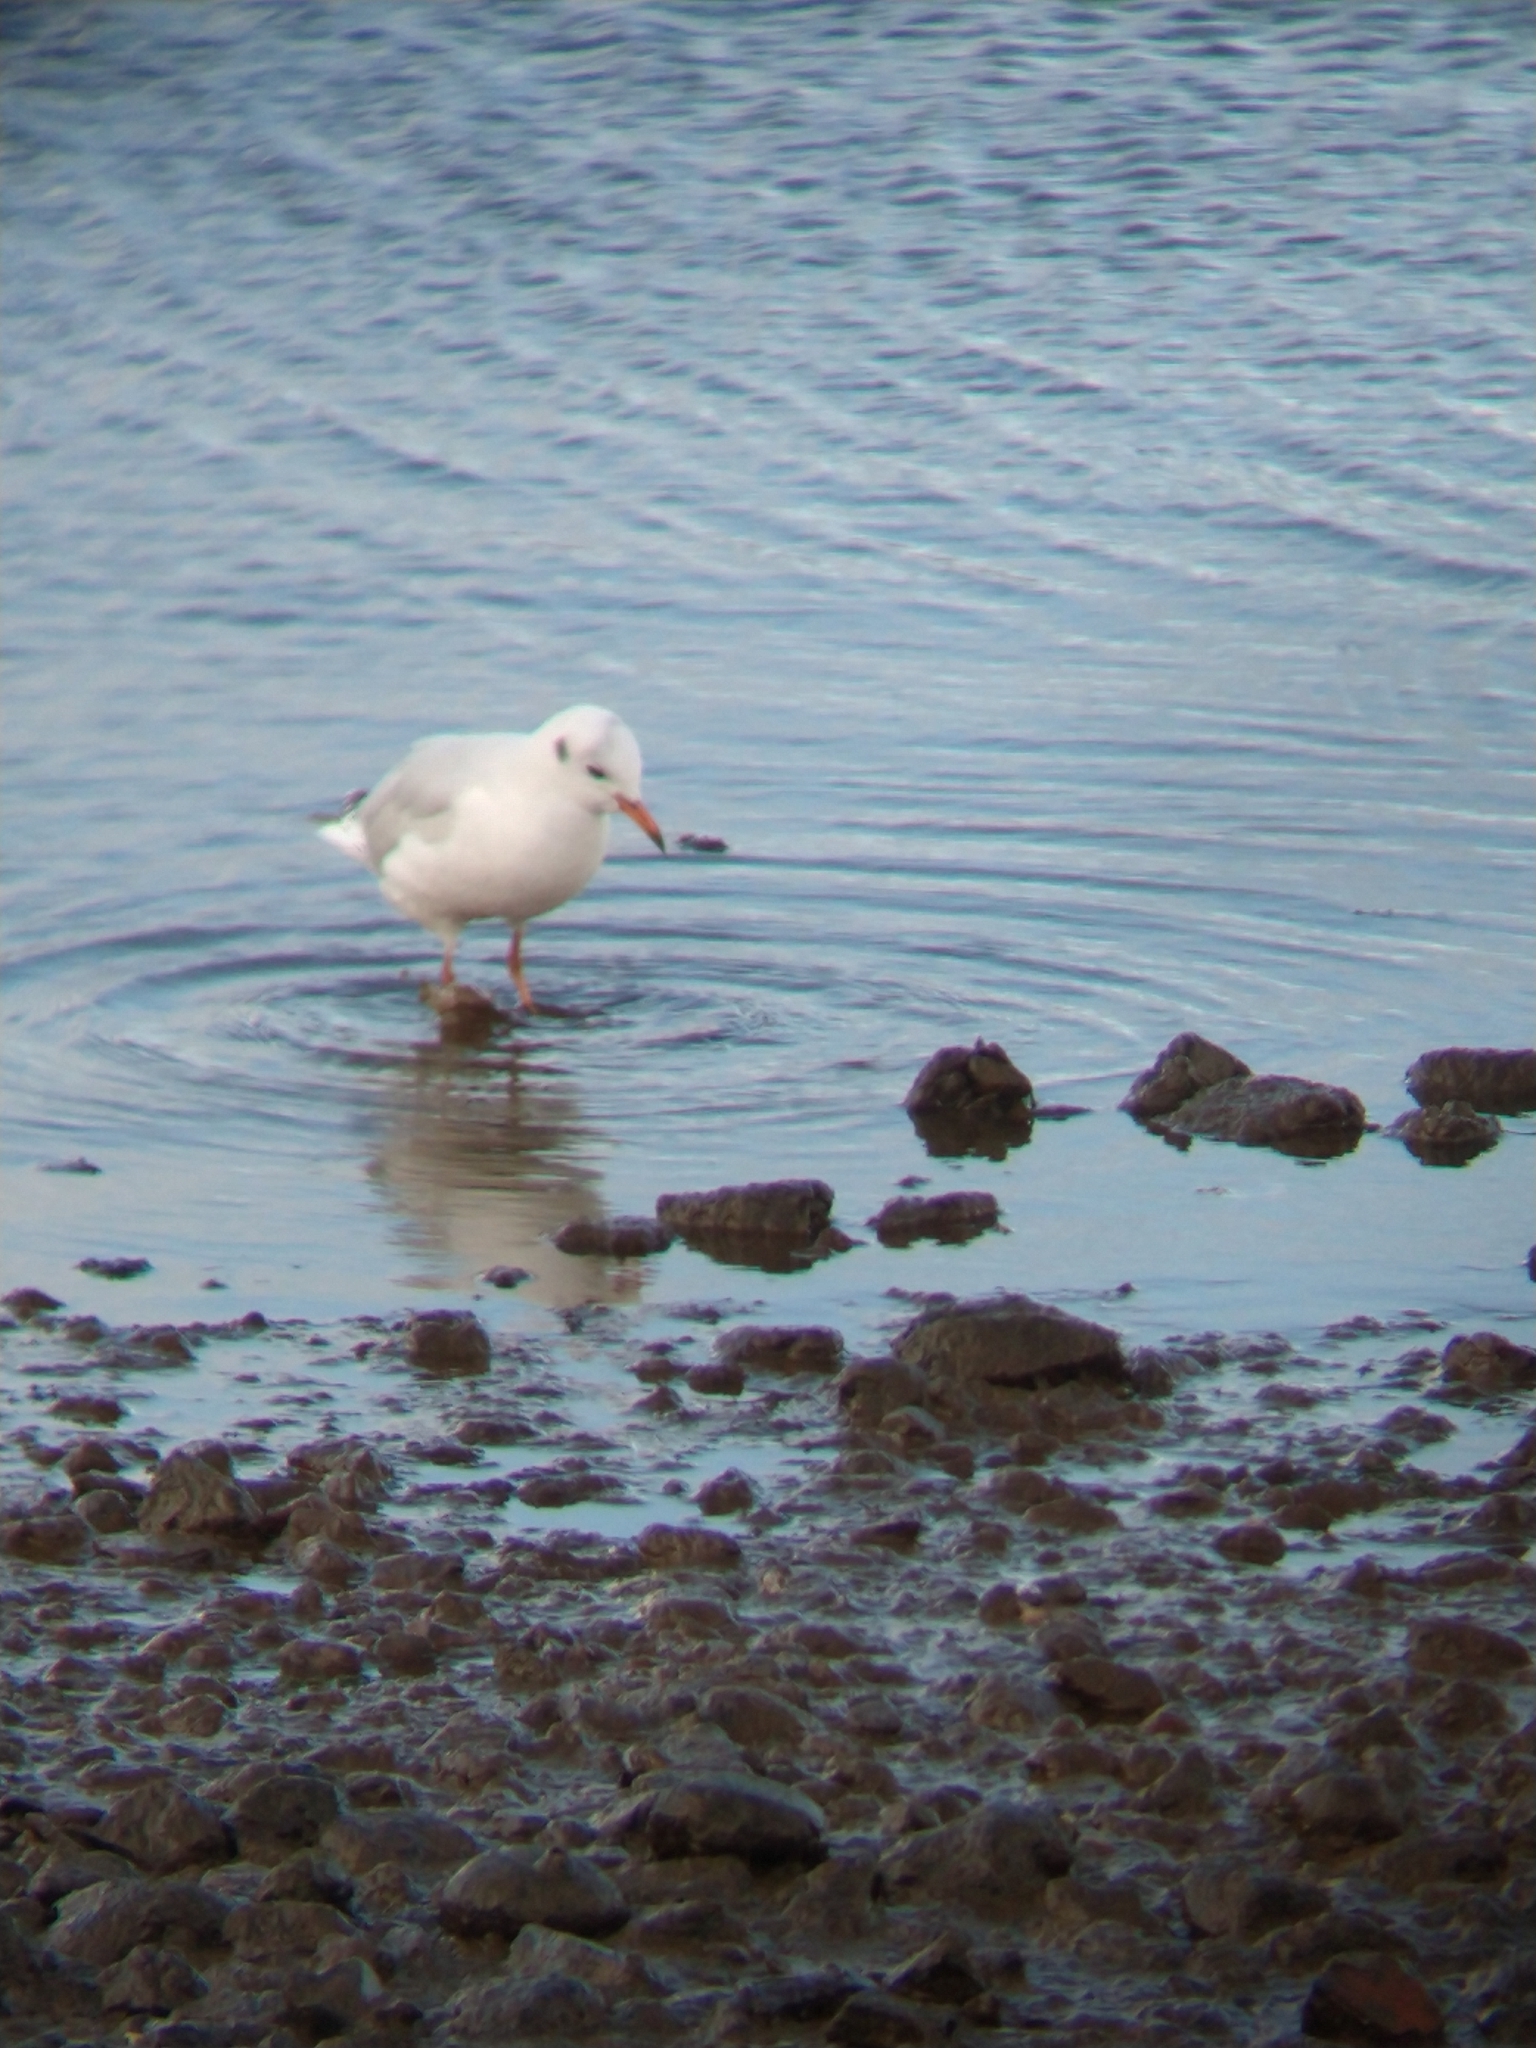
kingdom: Animalia
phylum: Chordata
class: Aves
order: Charadriiformes
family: Laridae
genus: Chroicocephalus
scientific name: Chroicocephalus maculipennis
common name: Brown-hooded gull
